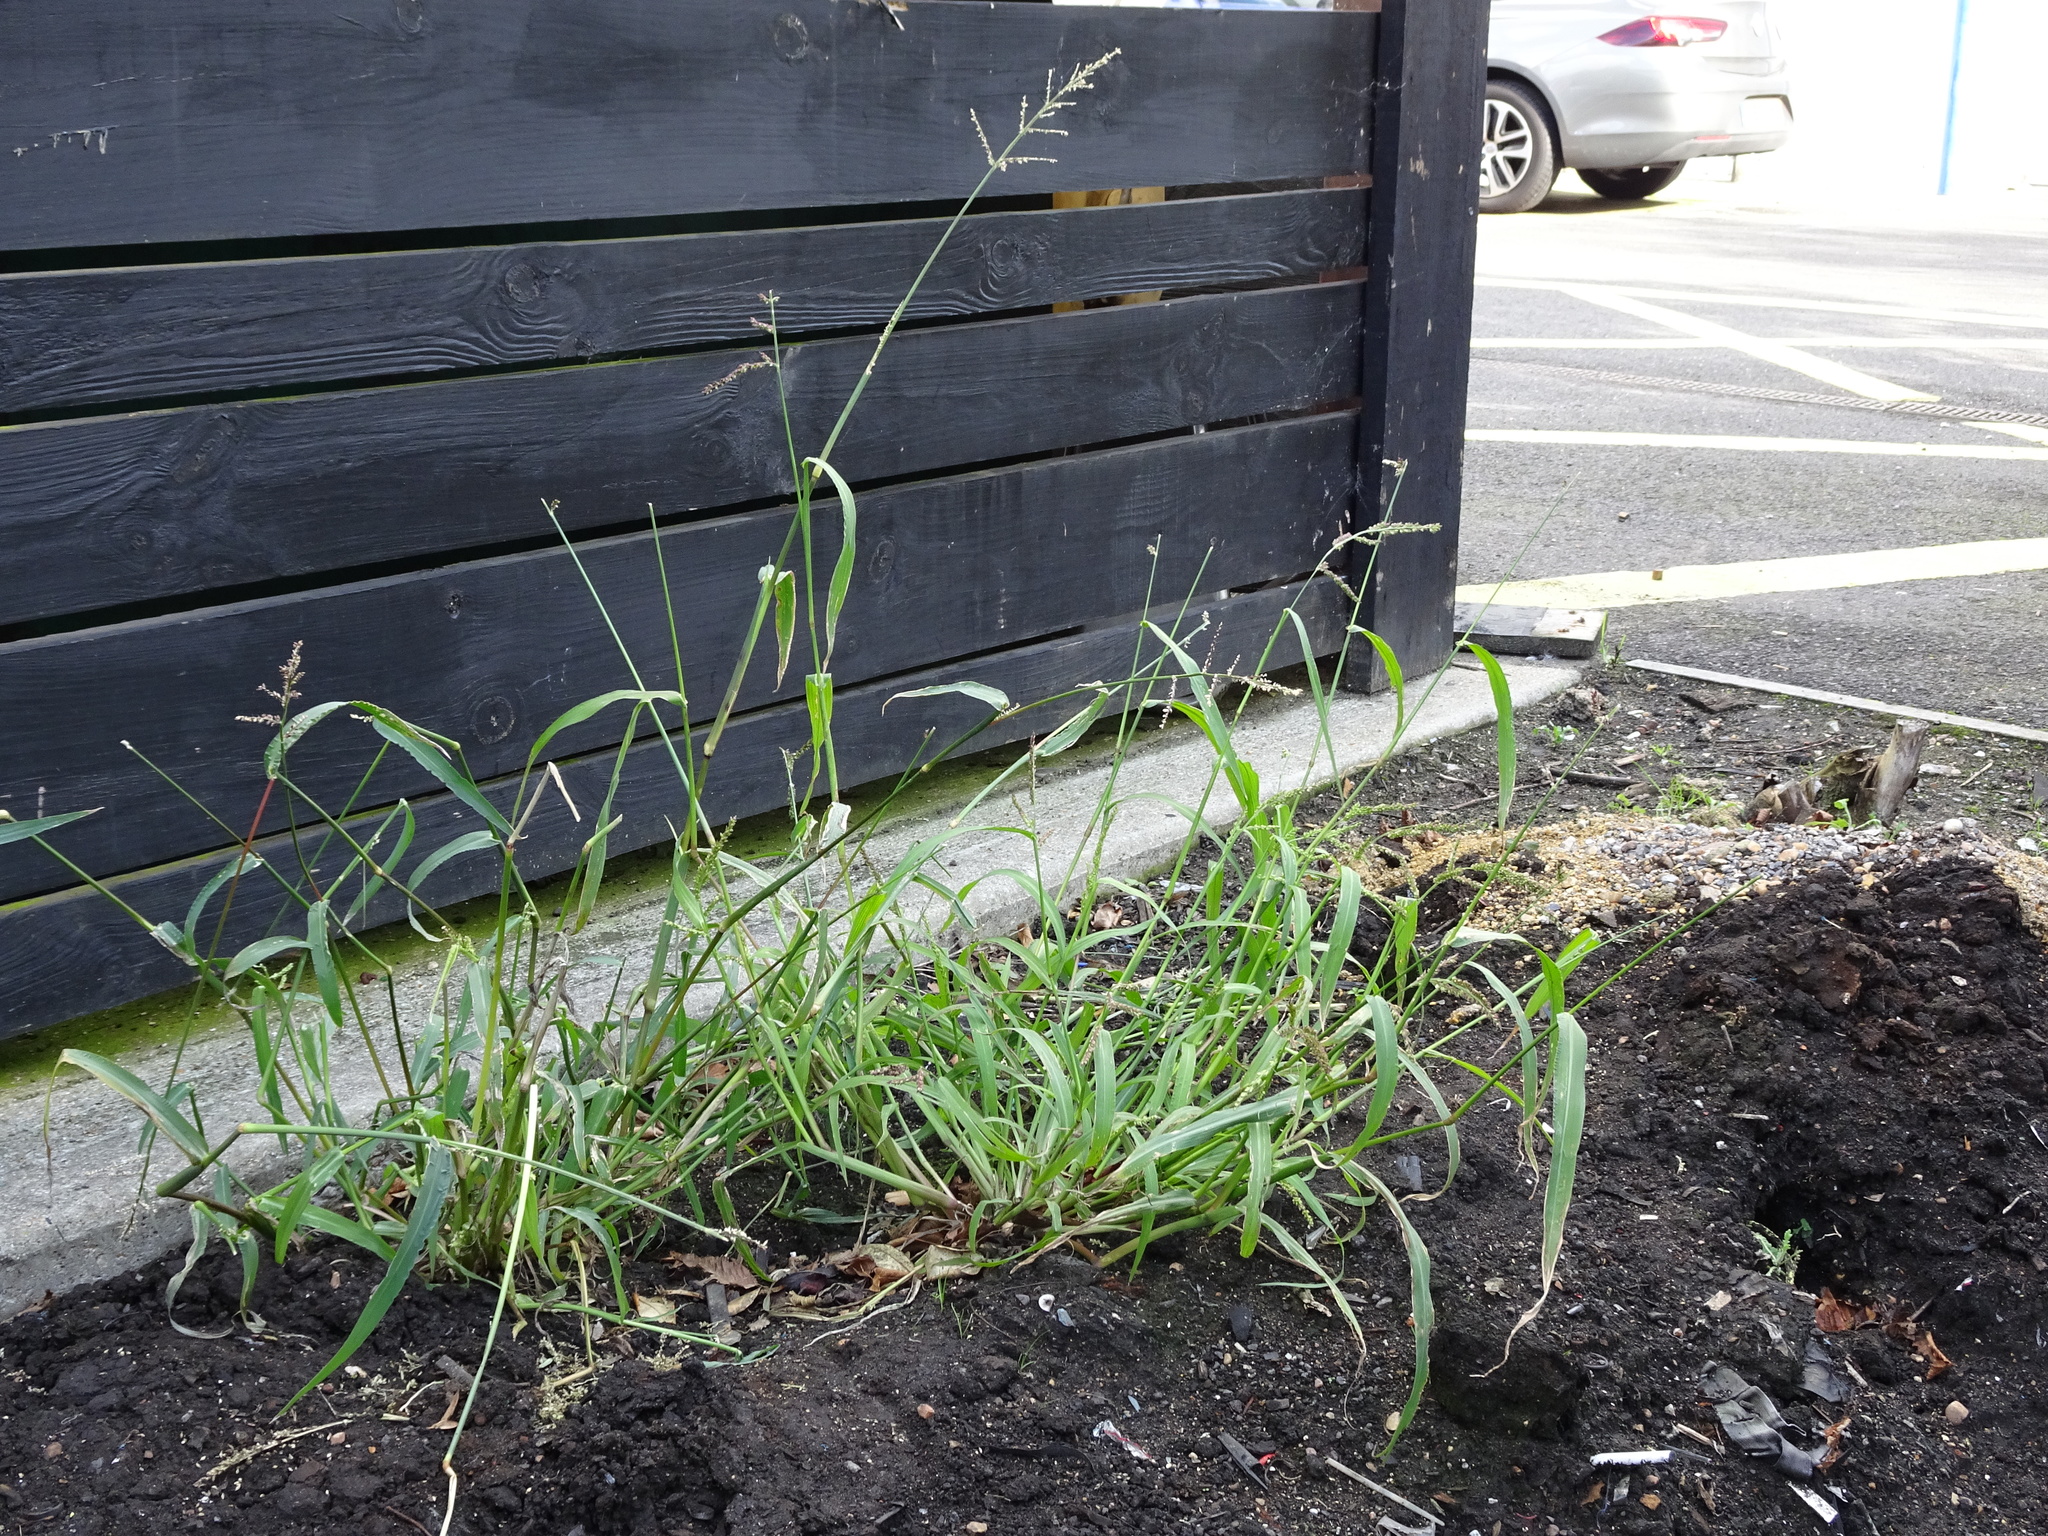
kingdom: Plantae
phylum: Tracheophyta
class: Liliopsida
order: Poales
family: Poaceae
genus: Echinochloa
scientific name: Echinochloa crus-galli
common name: Cockspur
